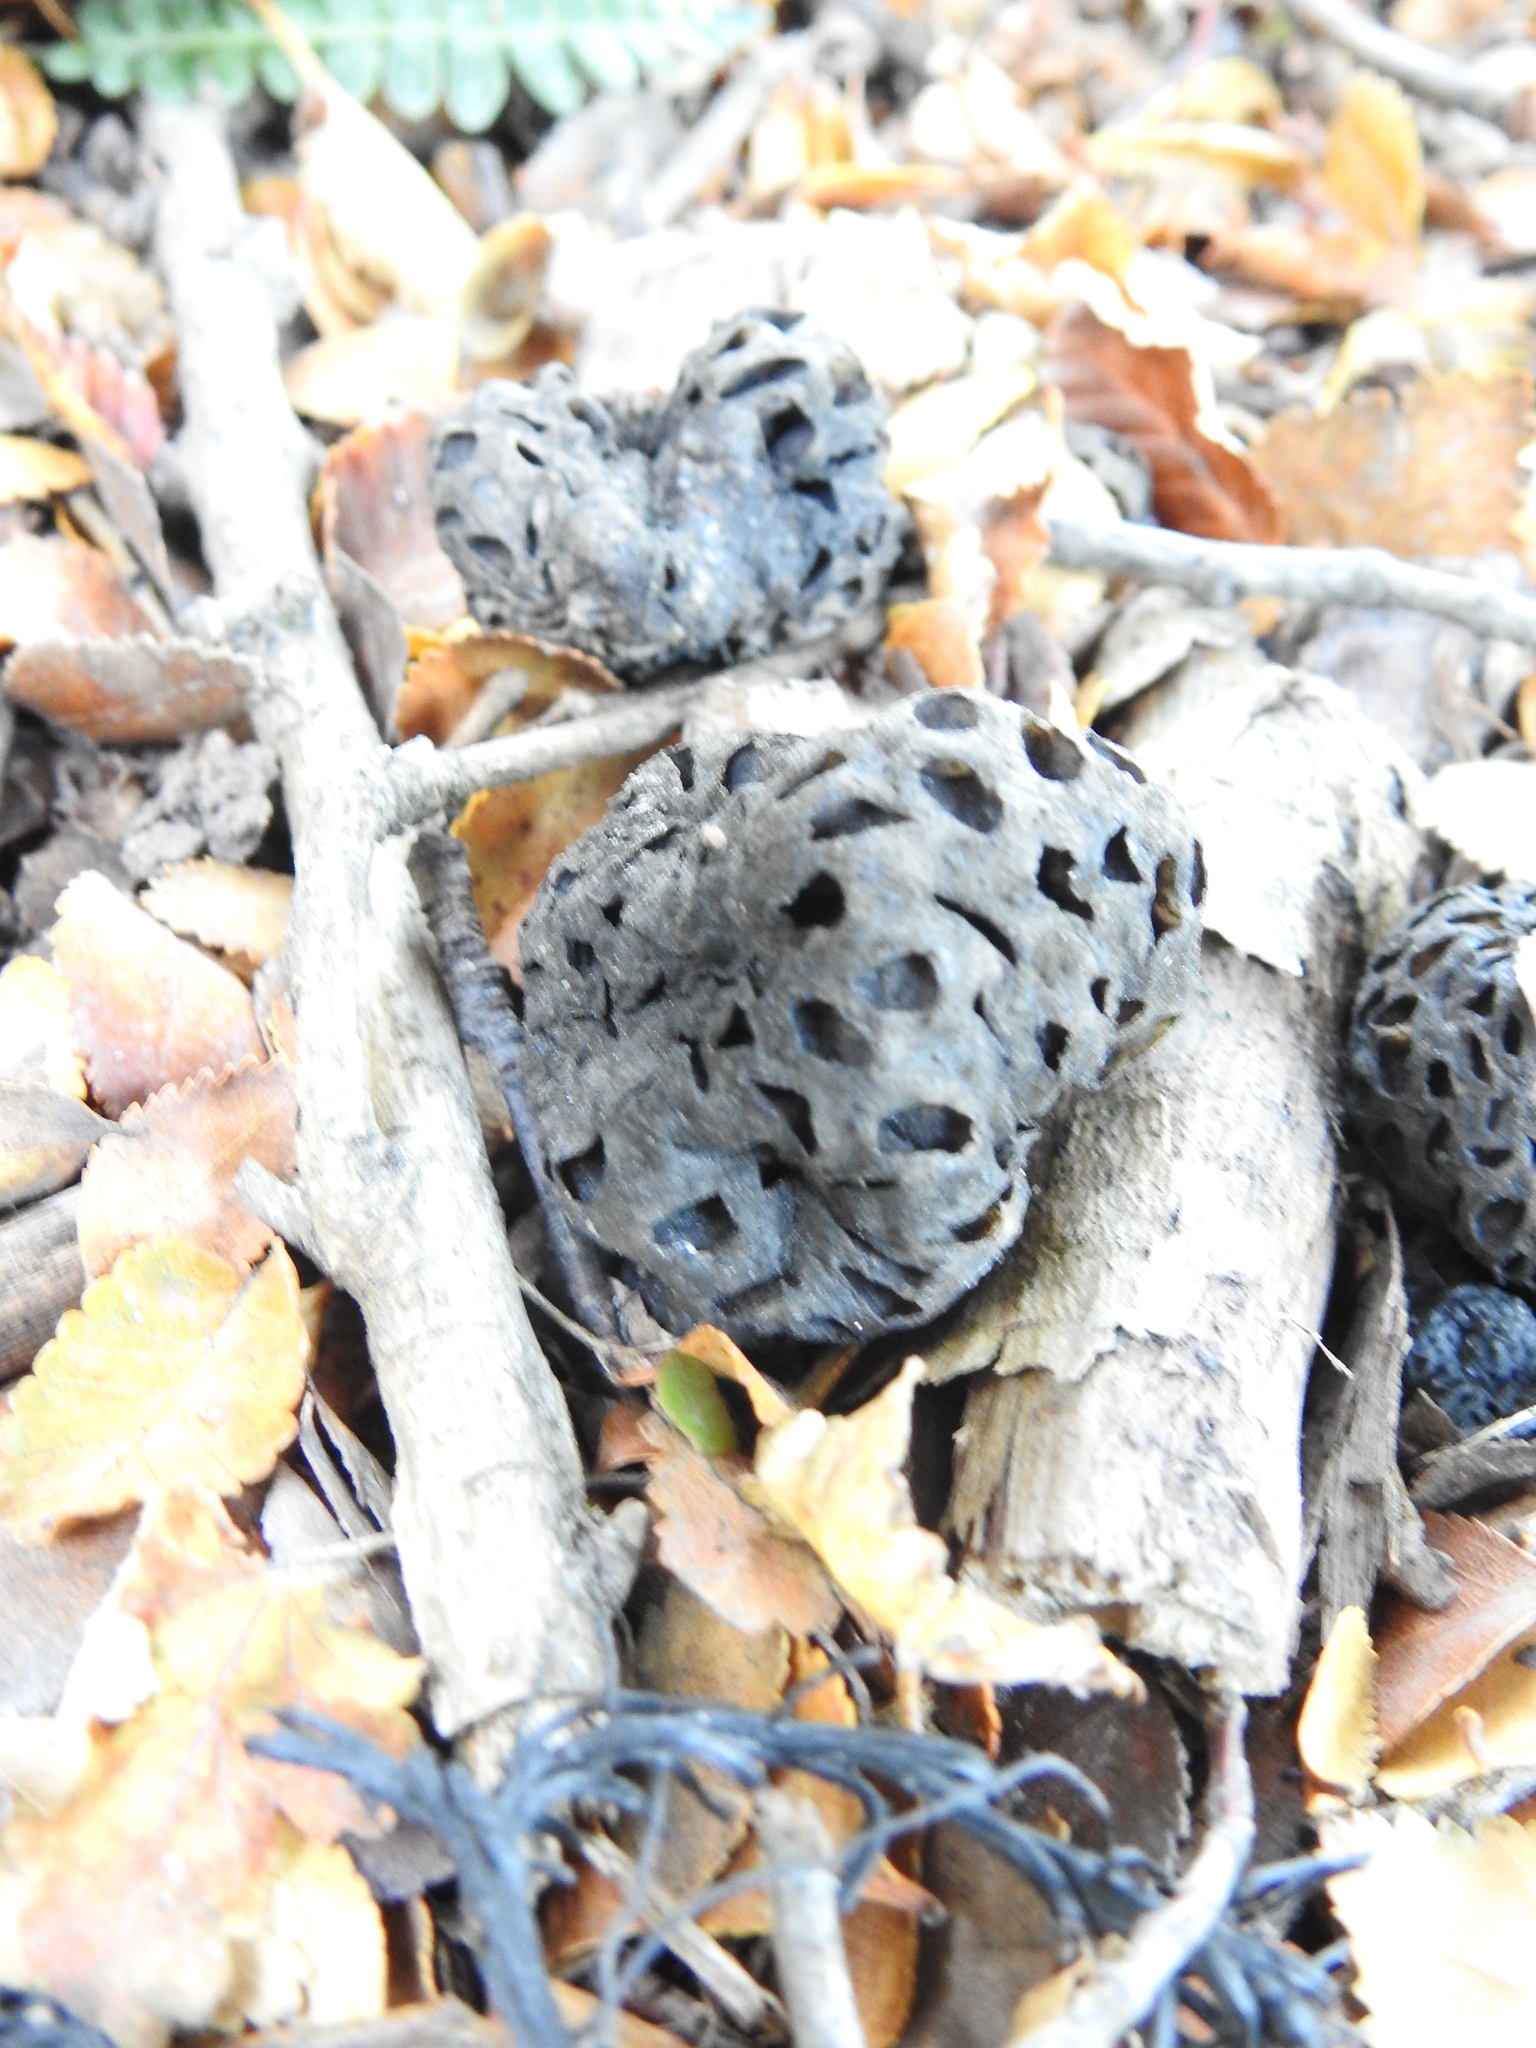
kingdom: Fungi
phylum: Ascomycota
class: Leotiomycetes
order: Cyttariales
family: Cyttariaceae
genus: Cyttaria
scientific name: Cyttaria hariotii
